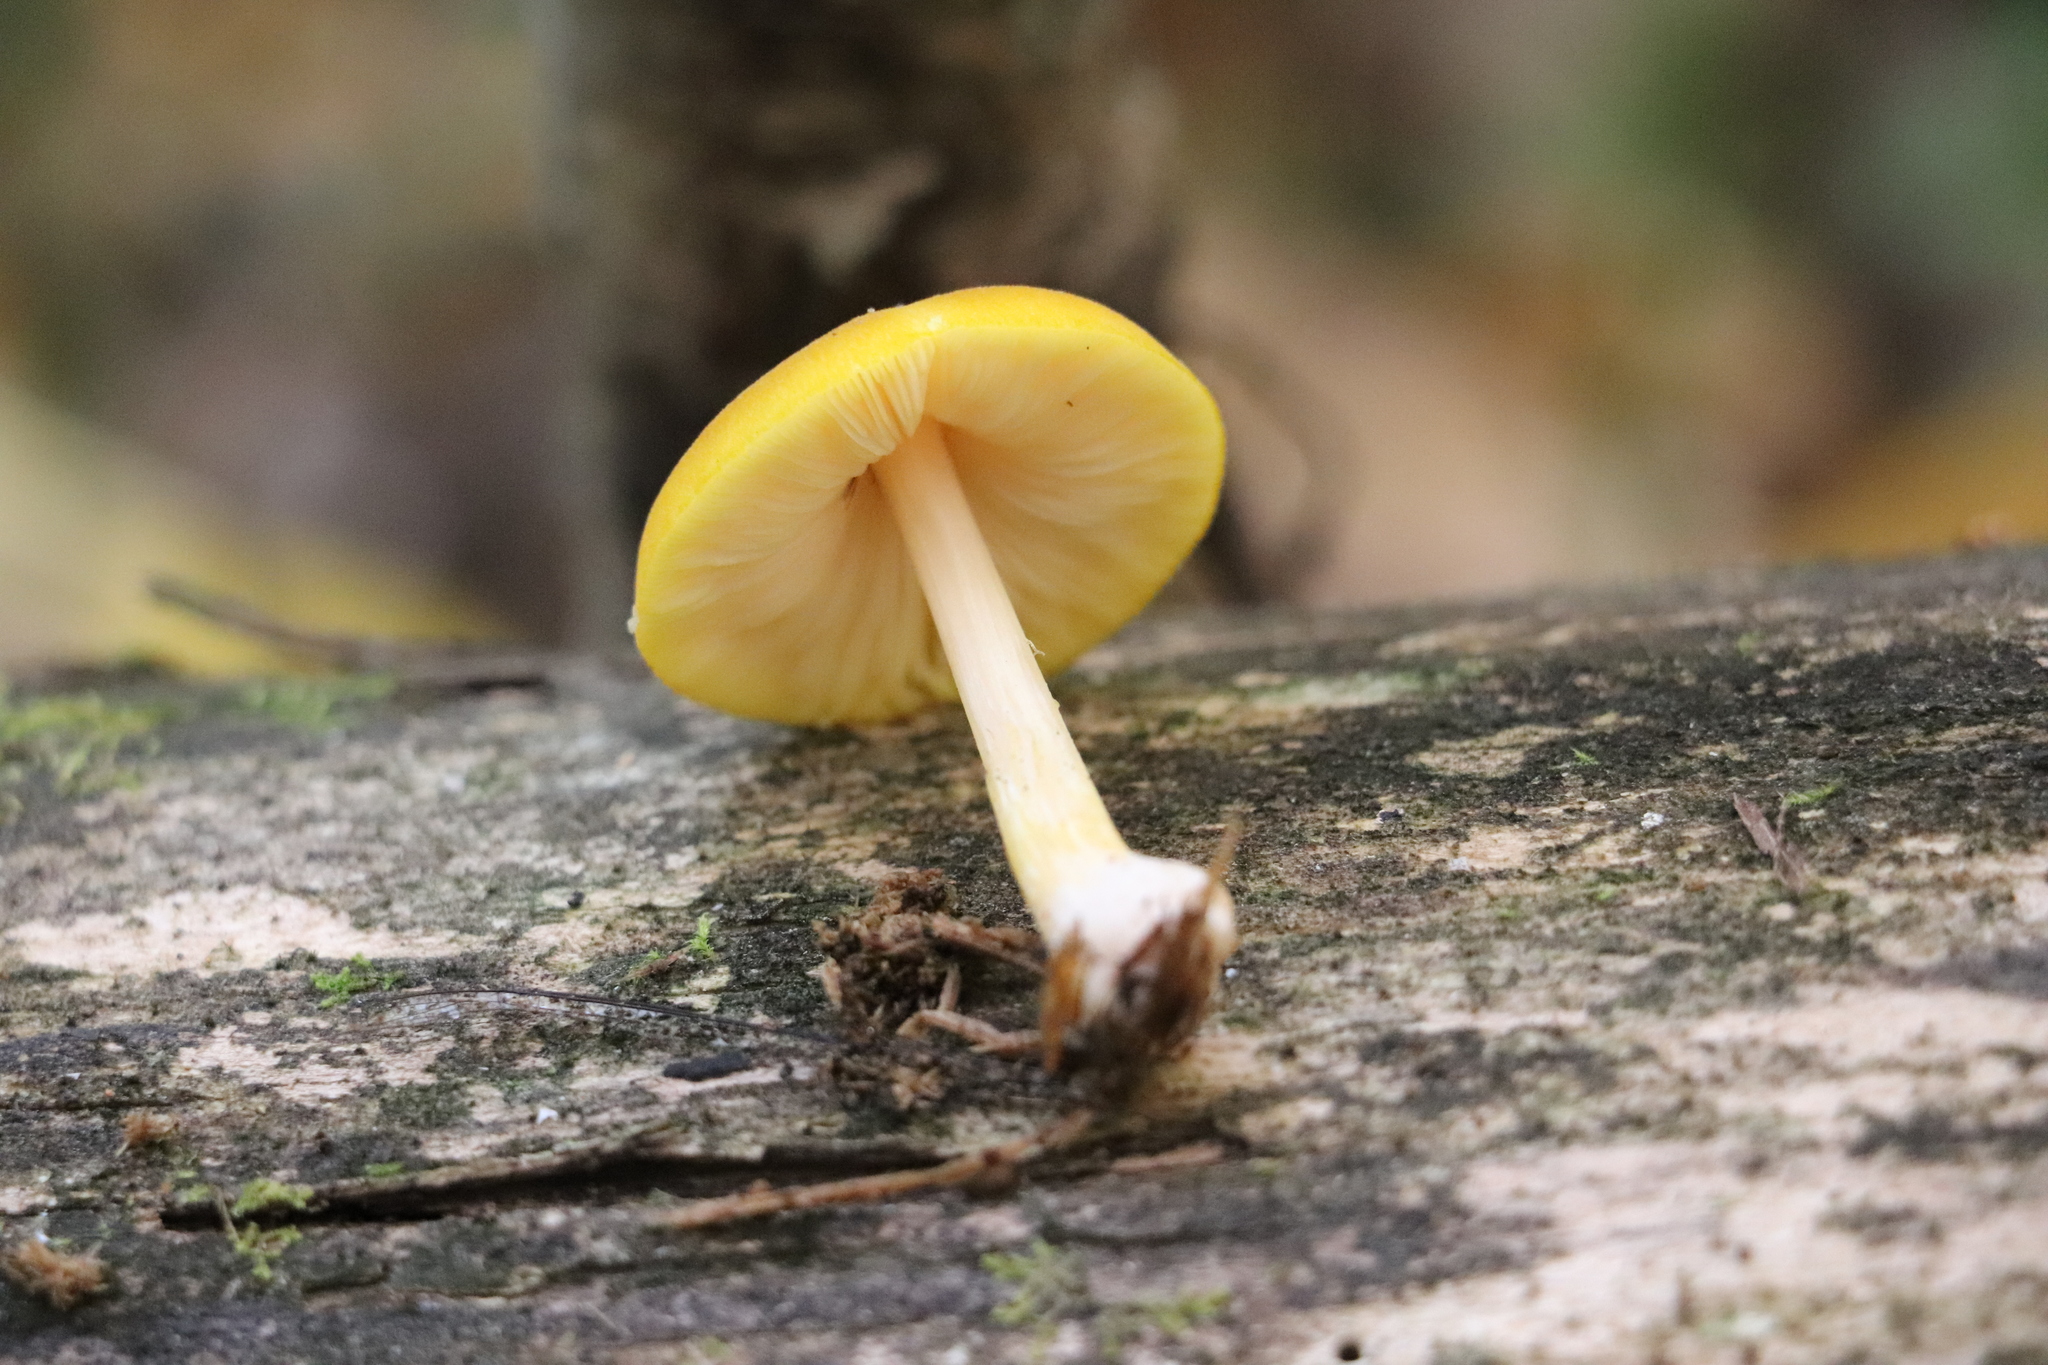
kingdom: Fungi
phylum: Basidiomycota
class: Agaricomycetes
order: Agaricales
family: Pluteaceae
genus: Pluteus
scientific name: Pluteus chrysophaeus
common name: Yellow shield
